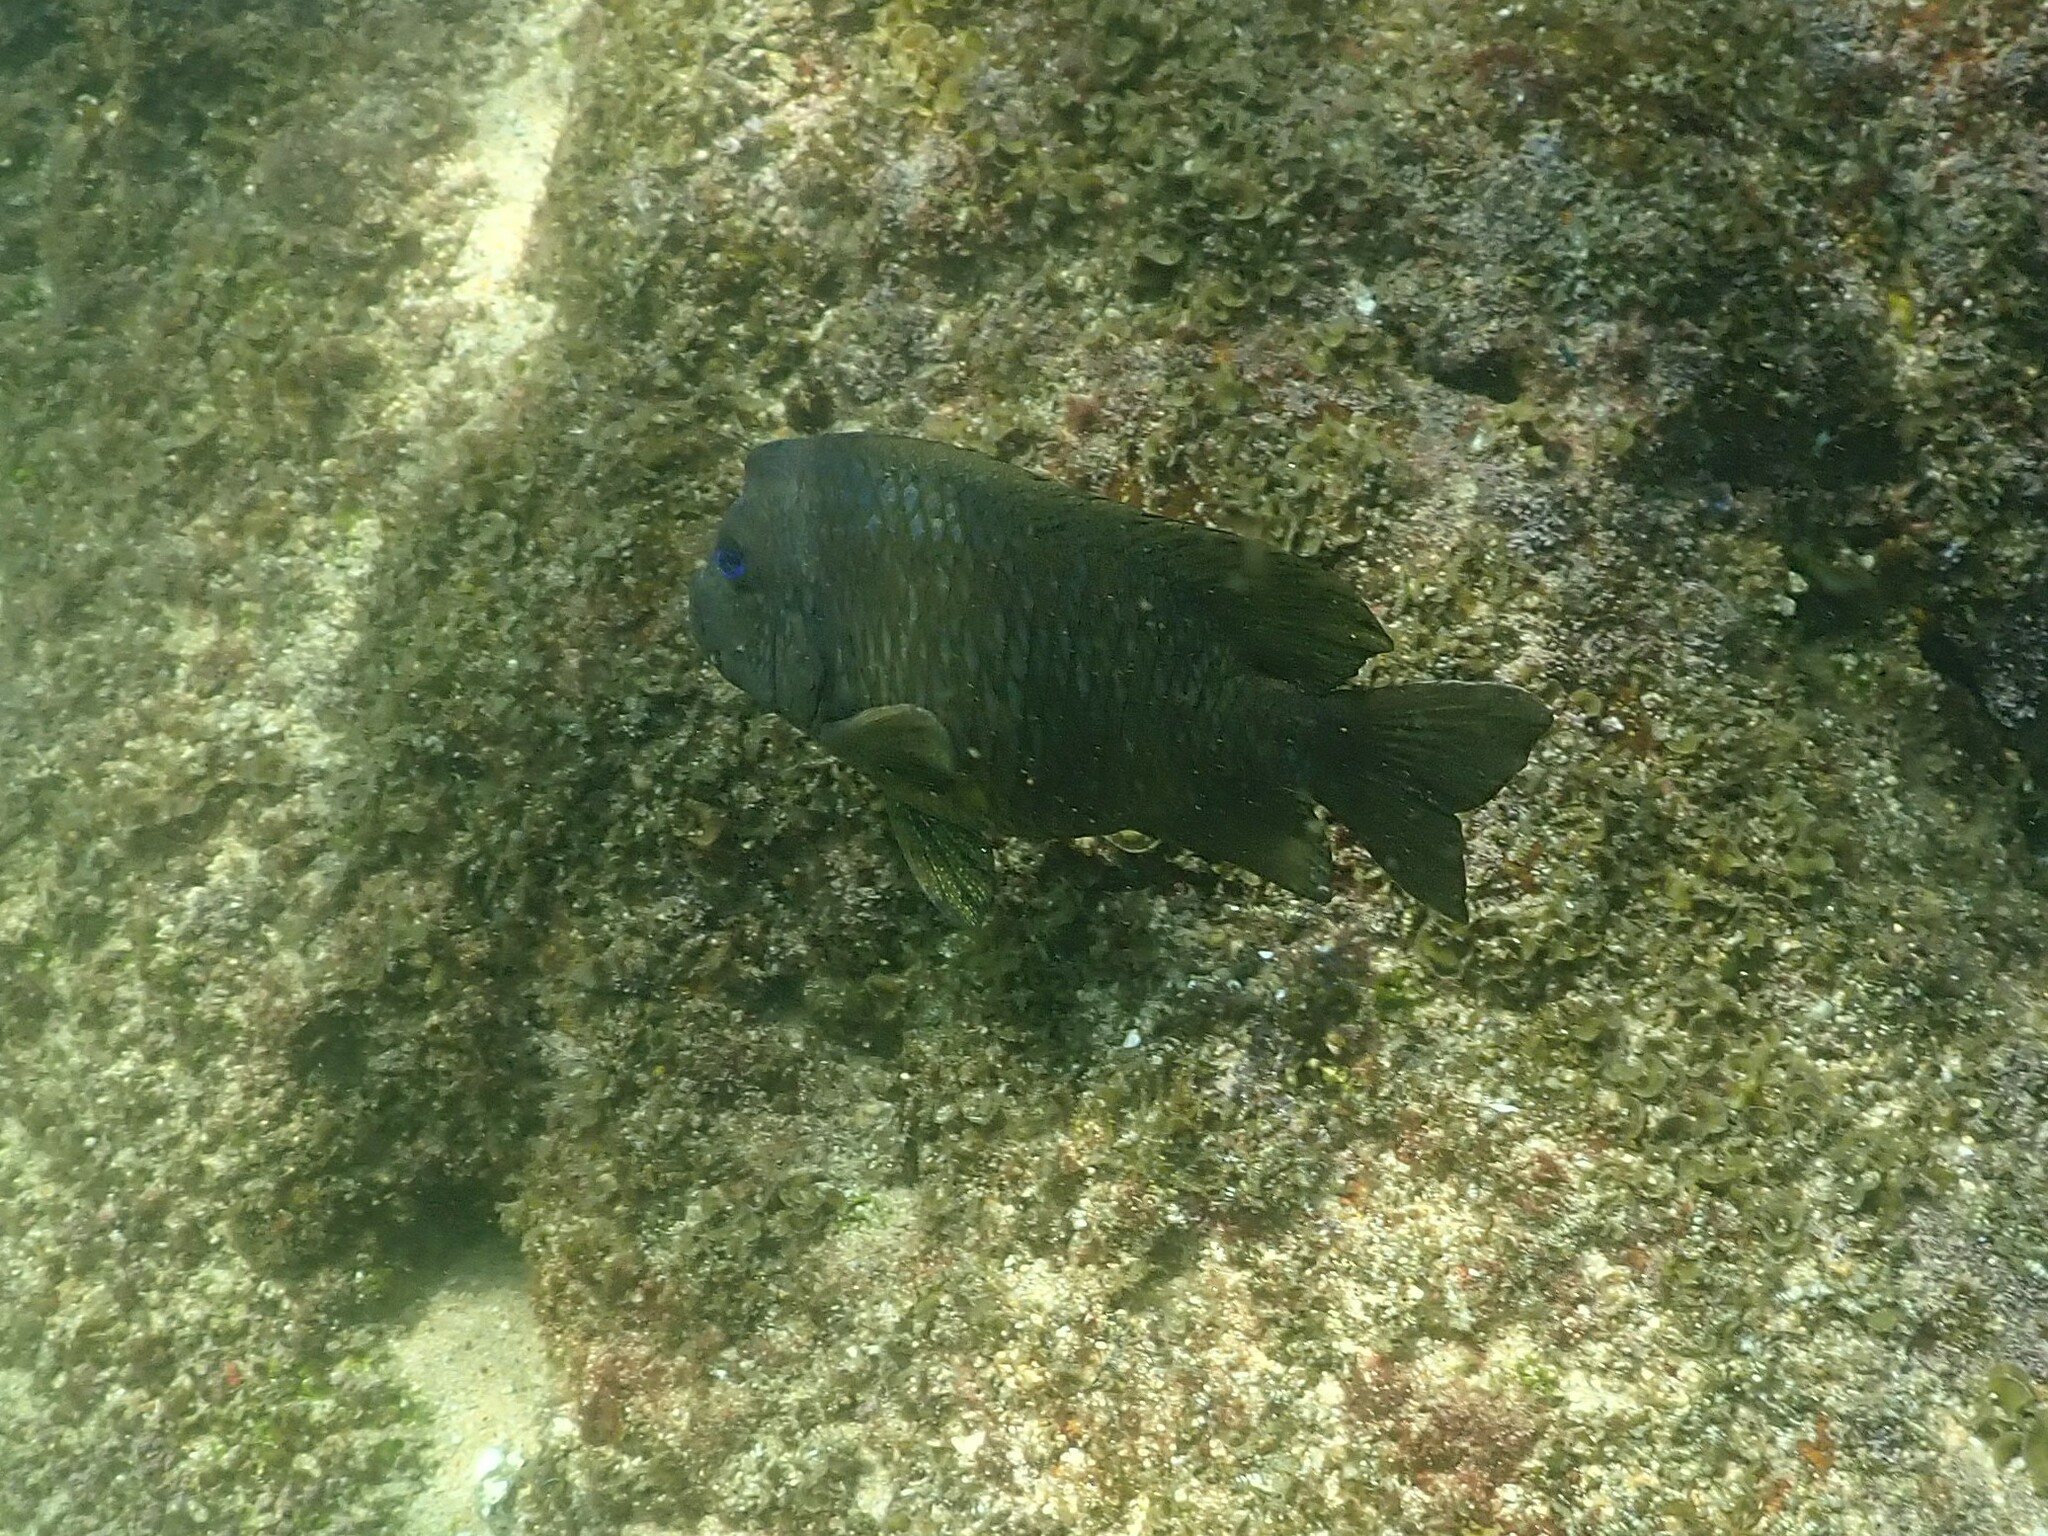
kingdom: Animalia
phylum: Chordata
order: Perciformes
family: Pomacentridae
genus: Microspathodon
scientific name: Microspathodon bairdii
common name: Bumphead damselfish
